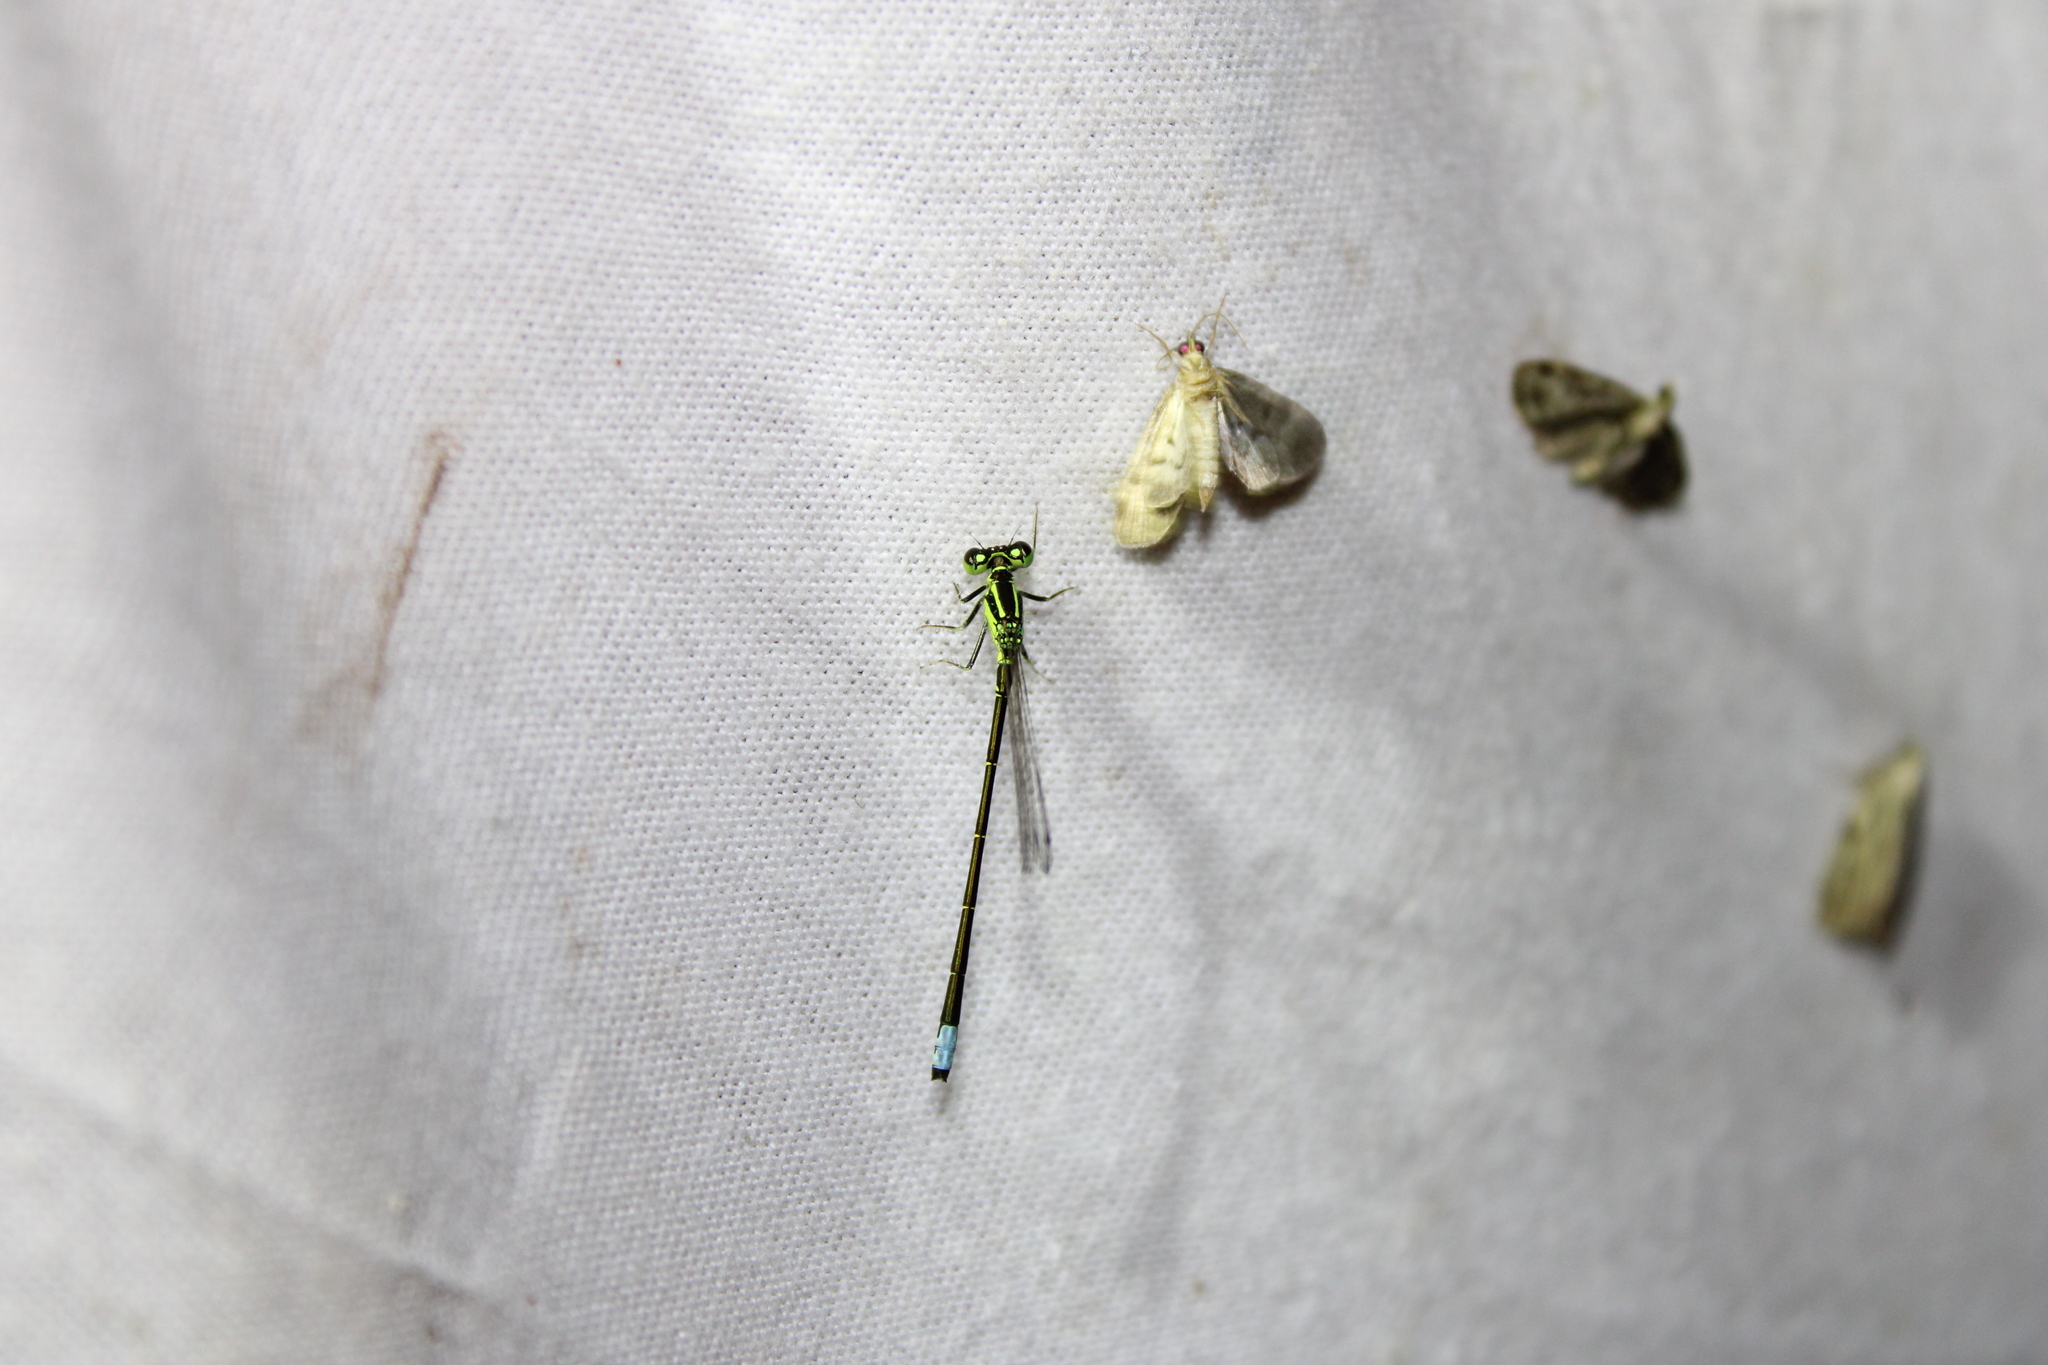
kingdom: Animalia
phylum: Arthropoda
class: Insecta
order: Odonata
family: Coenagrionidae
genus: Ischnura
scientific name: Ischnura verticalis
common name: Eastern forktail
